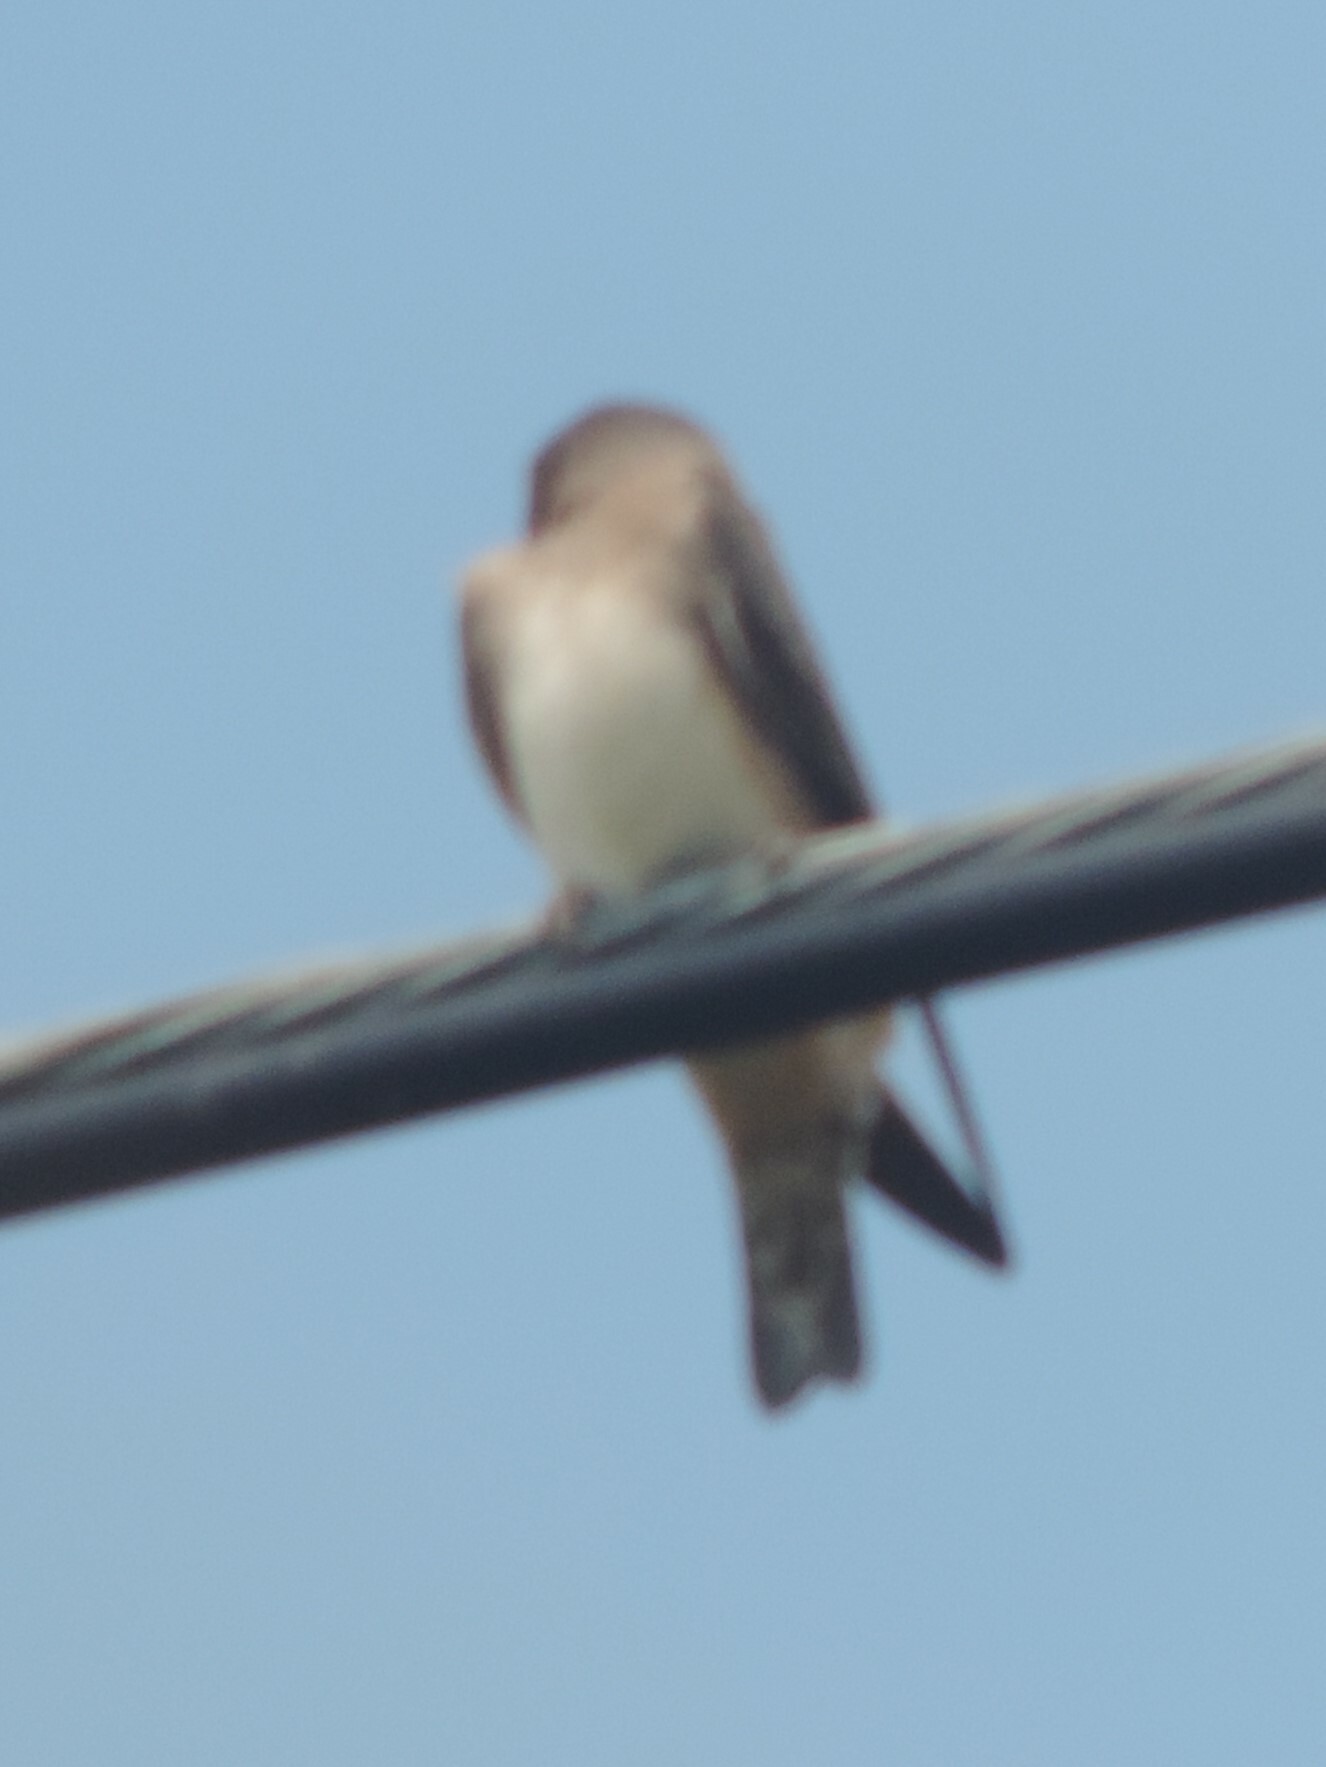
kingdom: Animalia
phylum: Chordata
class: Aves
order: Passeriformes
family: Hirundinidae
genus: Stelgidopteryx
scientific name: Stelgidopteryx serripennis
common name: Northern rough-winged swallow
